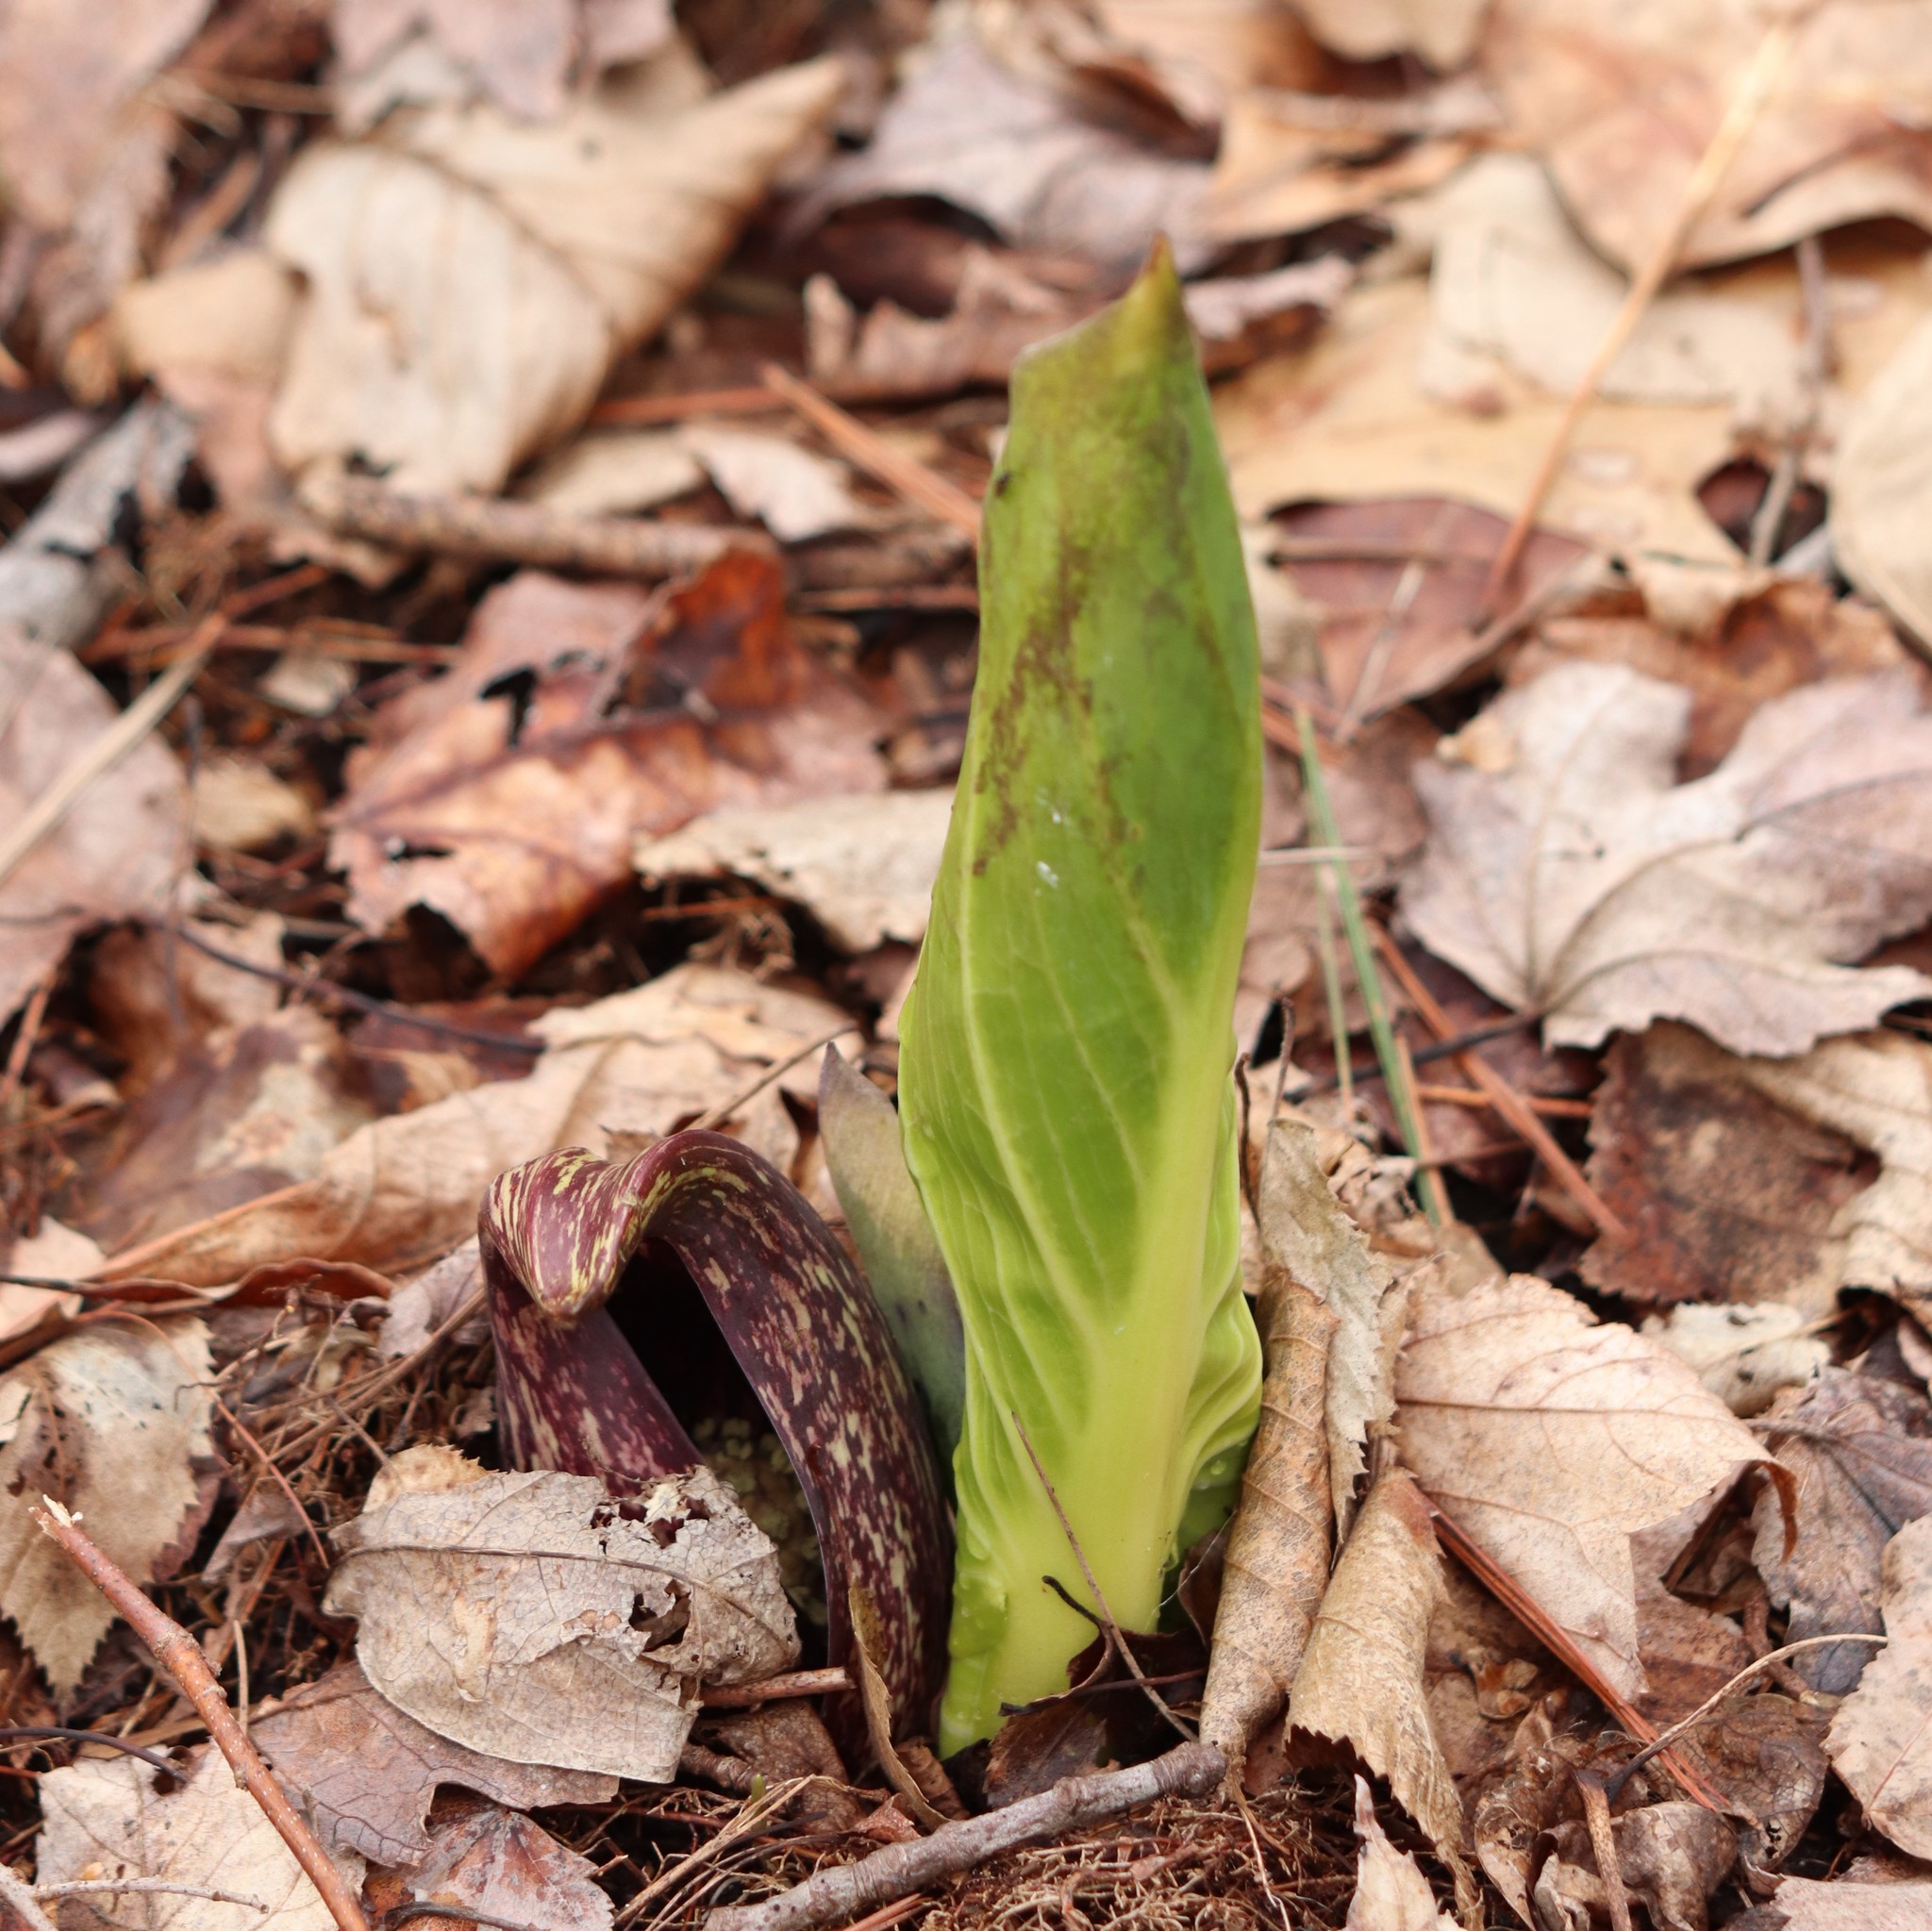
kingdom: Plantae
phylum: Tracheophyta
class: Liliopsida
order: Alismatales
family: Araceae
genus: Symplocarpus
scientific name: Symplocarpus foetidus
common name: Eastern skunk cabbage
